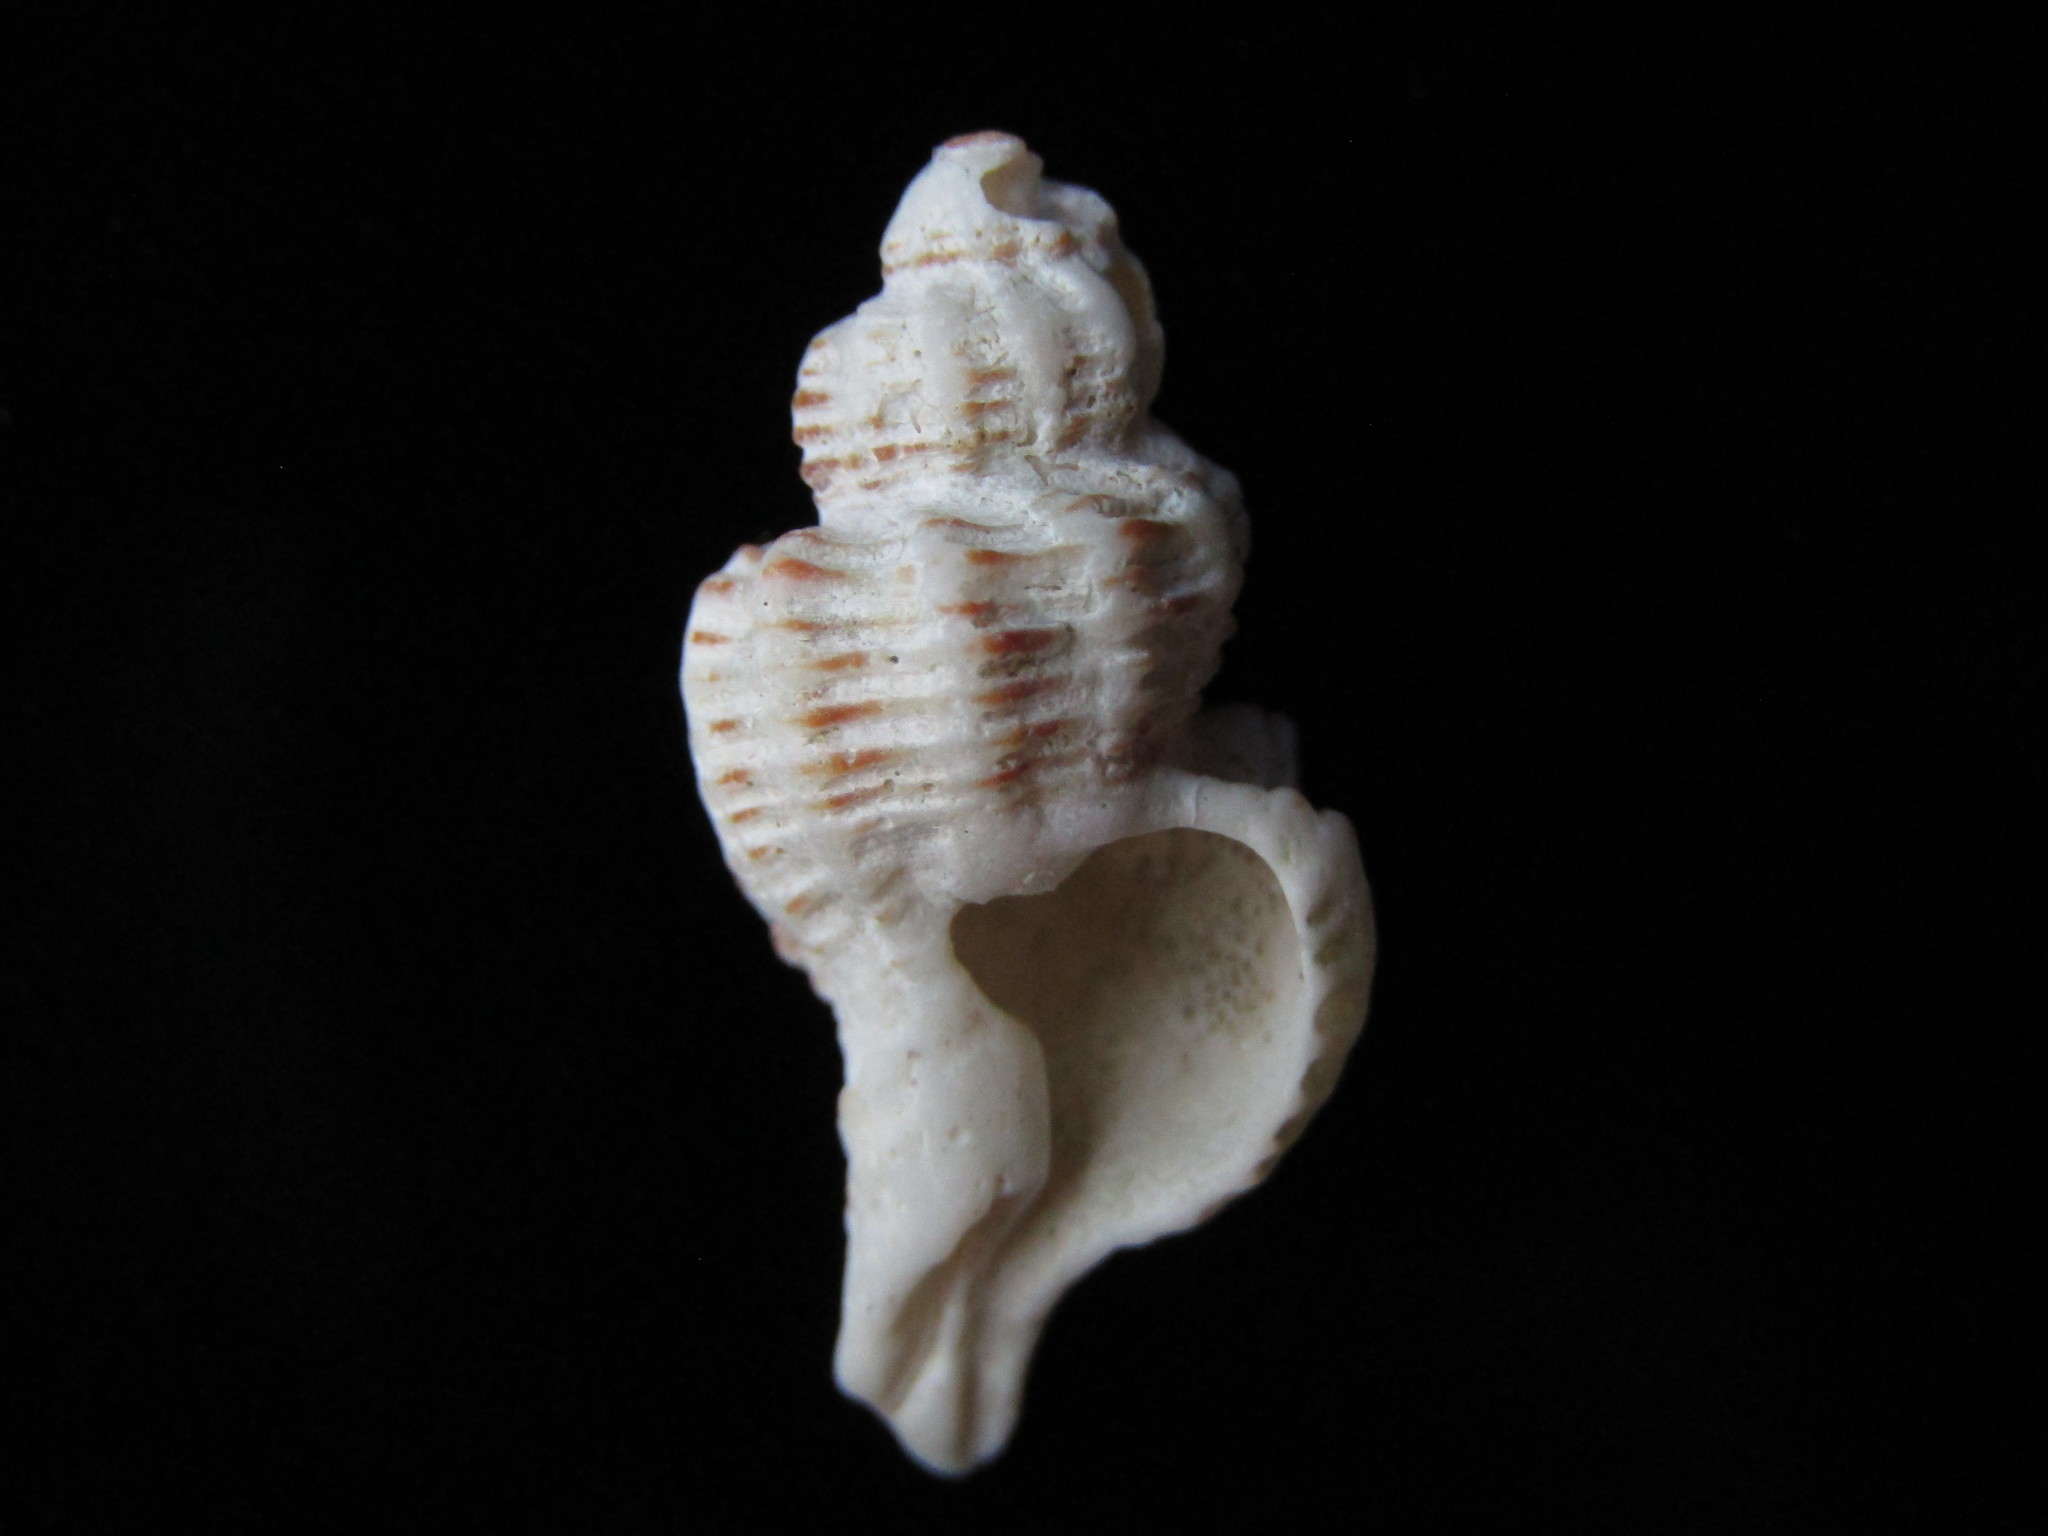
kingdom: Animalia
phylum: Mollusca
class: Gastropoda
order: Neogastropoda
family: Muricidae
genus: Murexsul
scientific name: Murexsul octogonus
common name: Octagon murex
